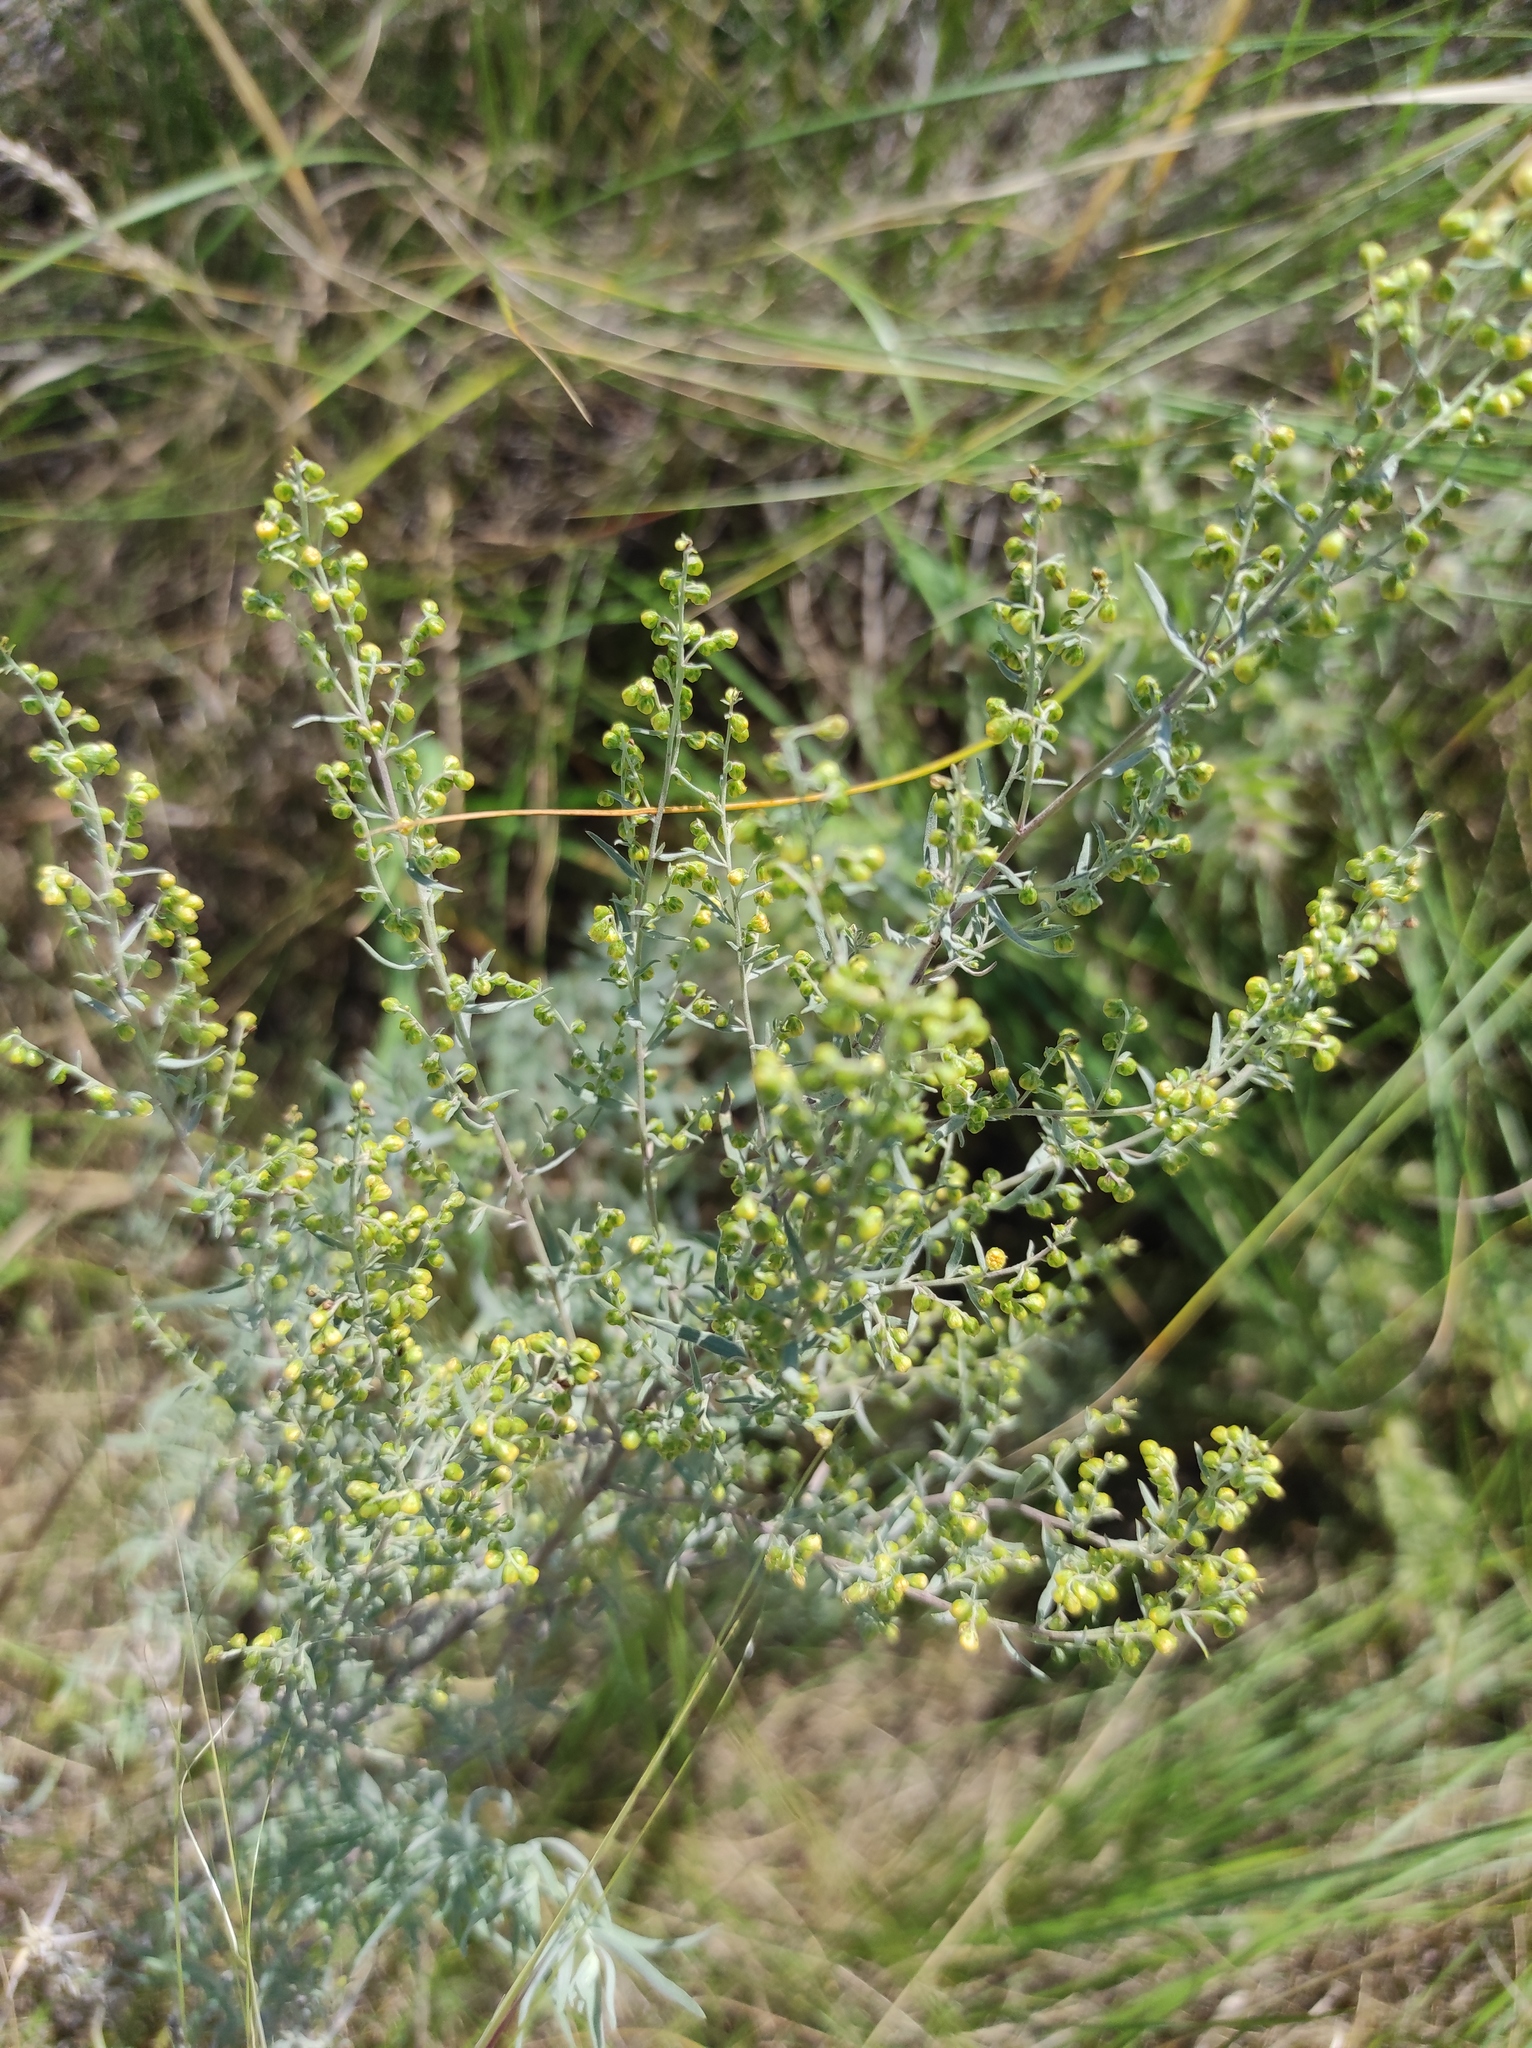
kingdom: Plantae
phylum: Tracheophyta
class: Magnoliopsida
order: Asterales
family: Asteraceae
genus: Artemisia
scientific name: Artemisia glauca
